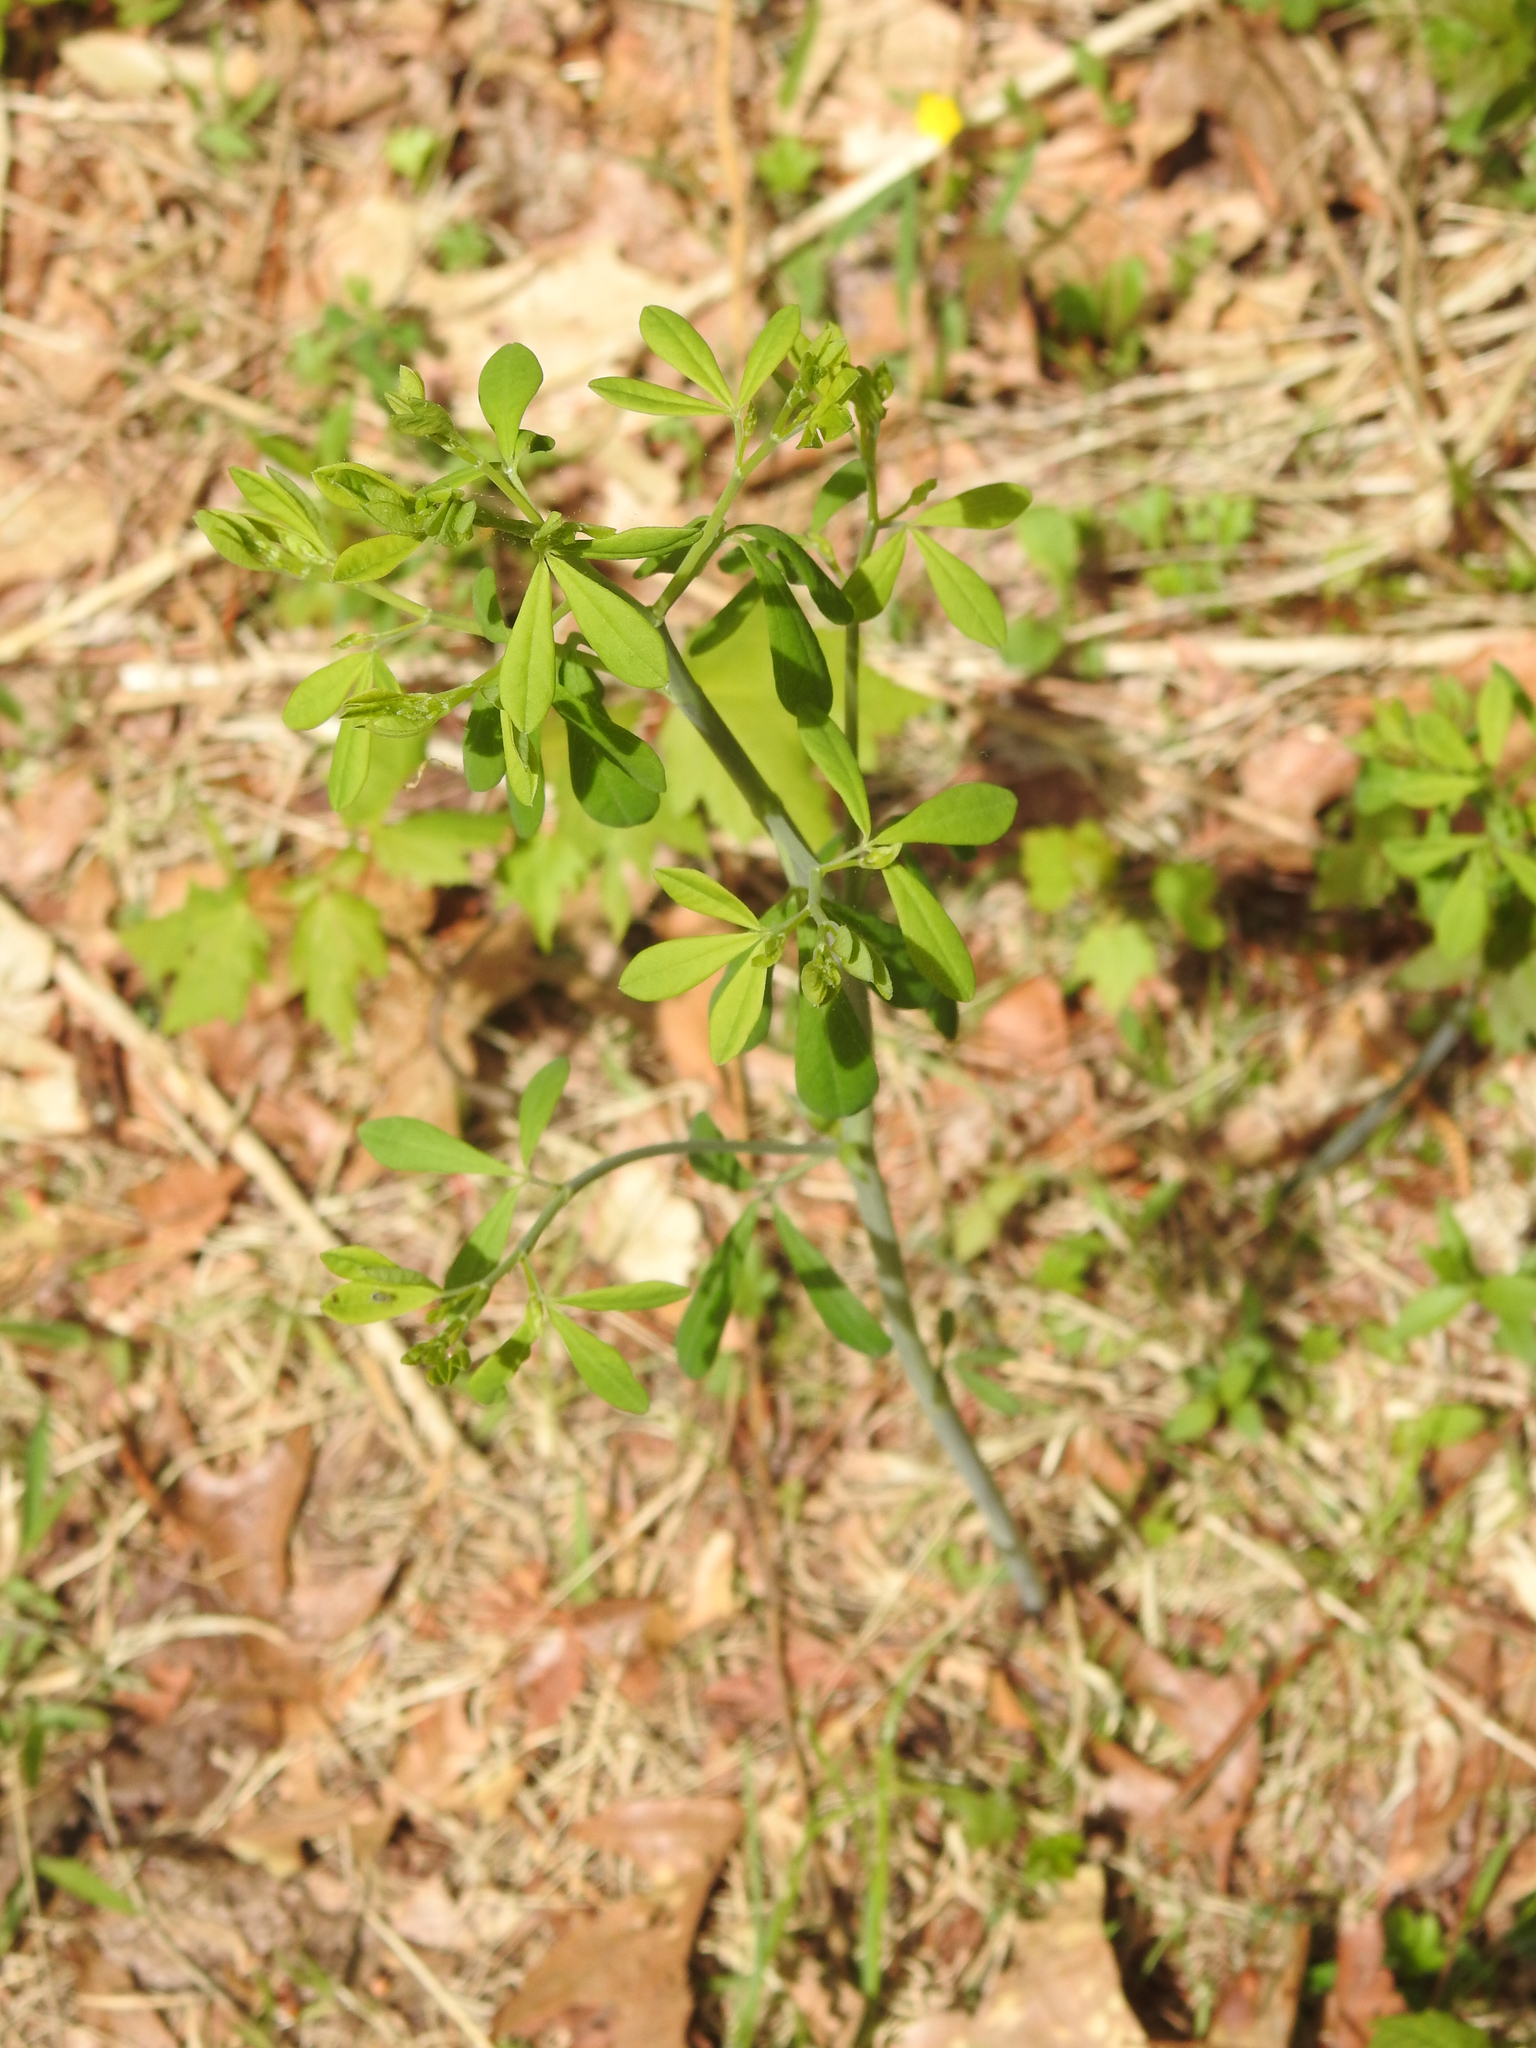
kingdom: Plantae
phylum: Tracheophyta
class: Magnoliopsida
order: Fabales
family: Fabaceae
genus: Baptisia
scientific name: Baptisia tinctoria
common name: Wild indigo
